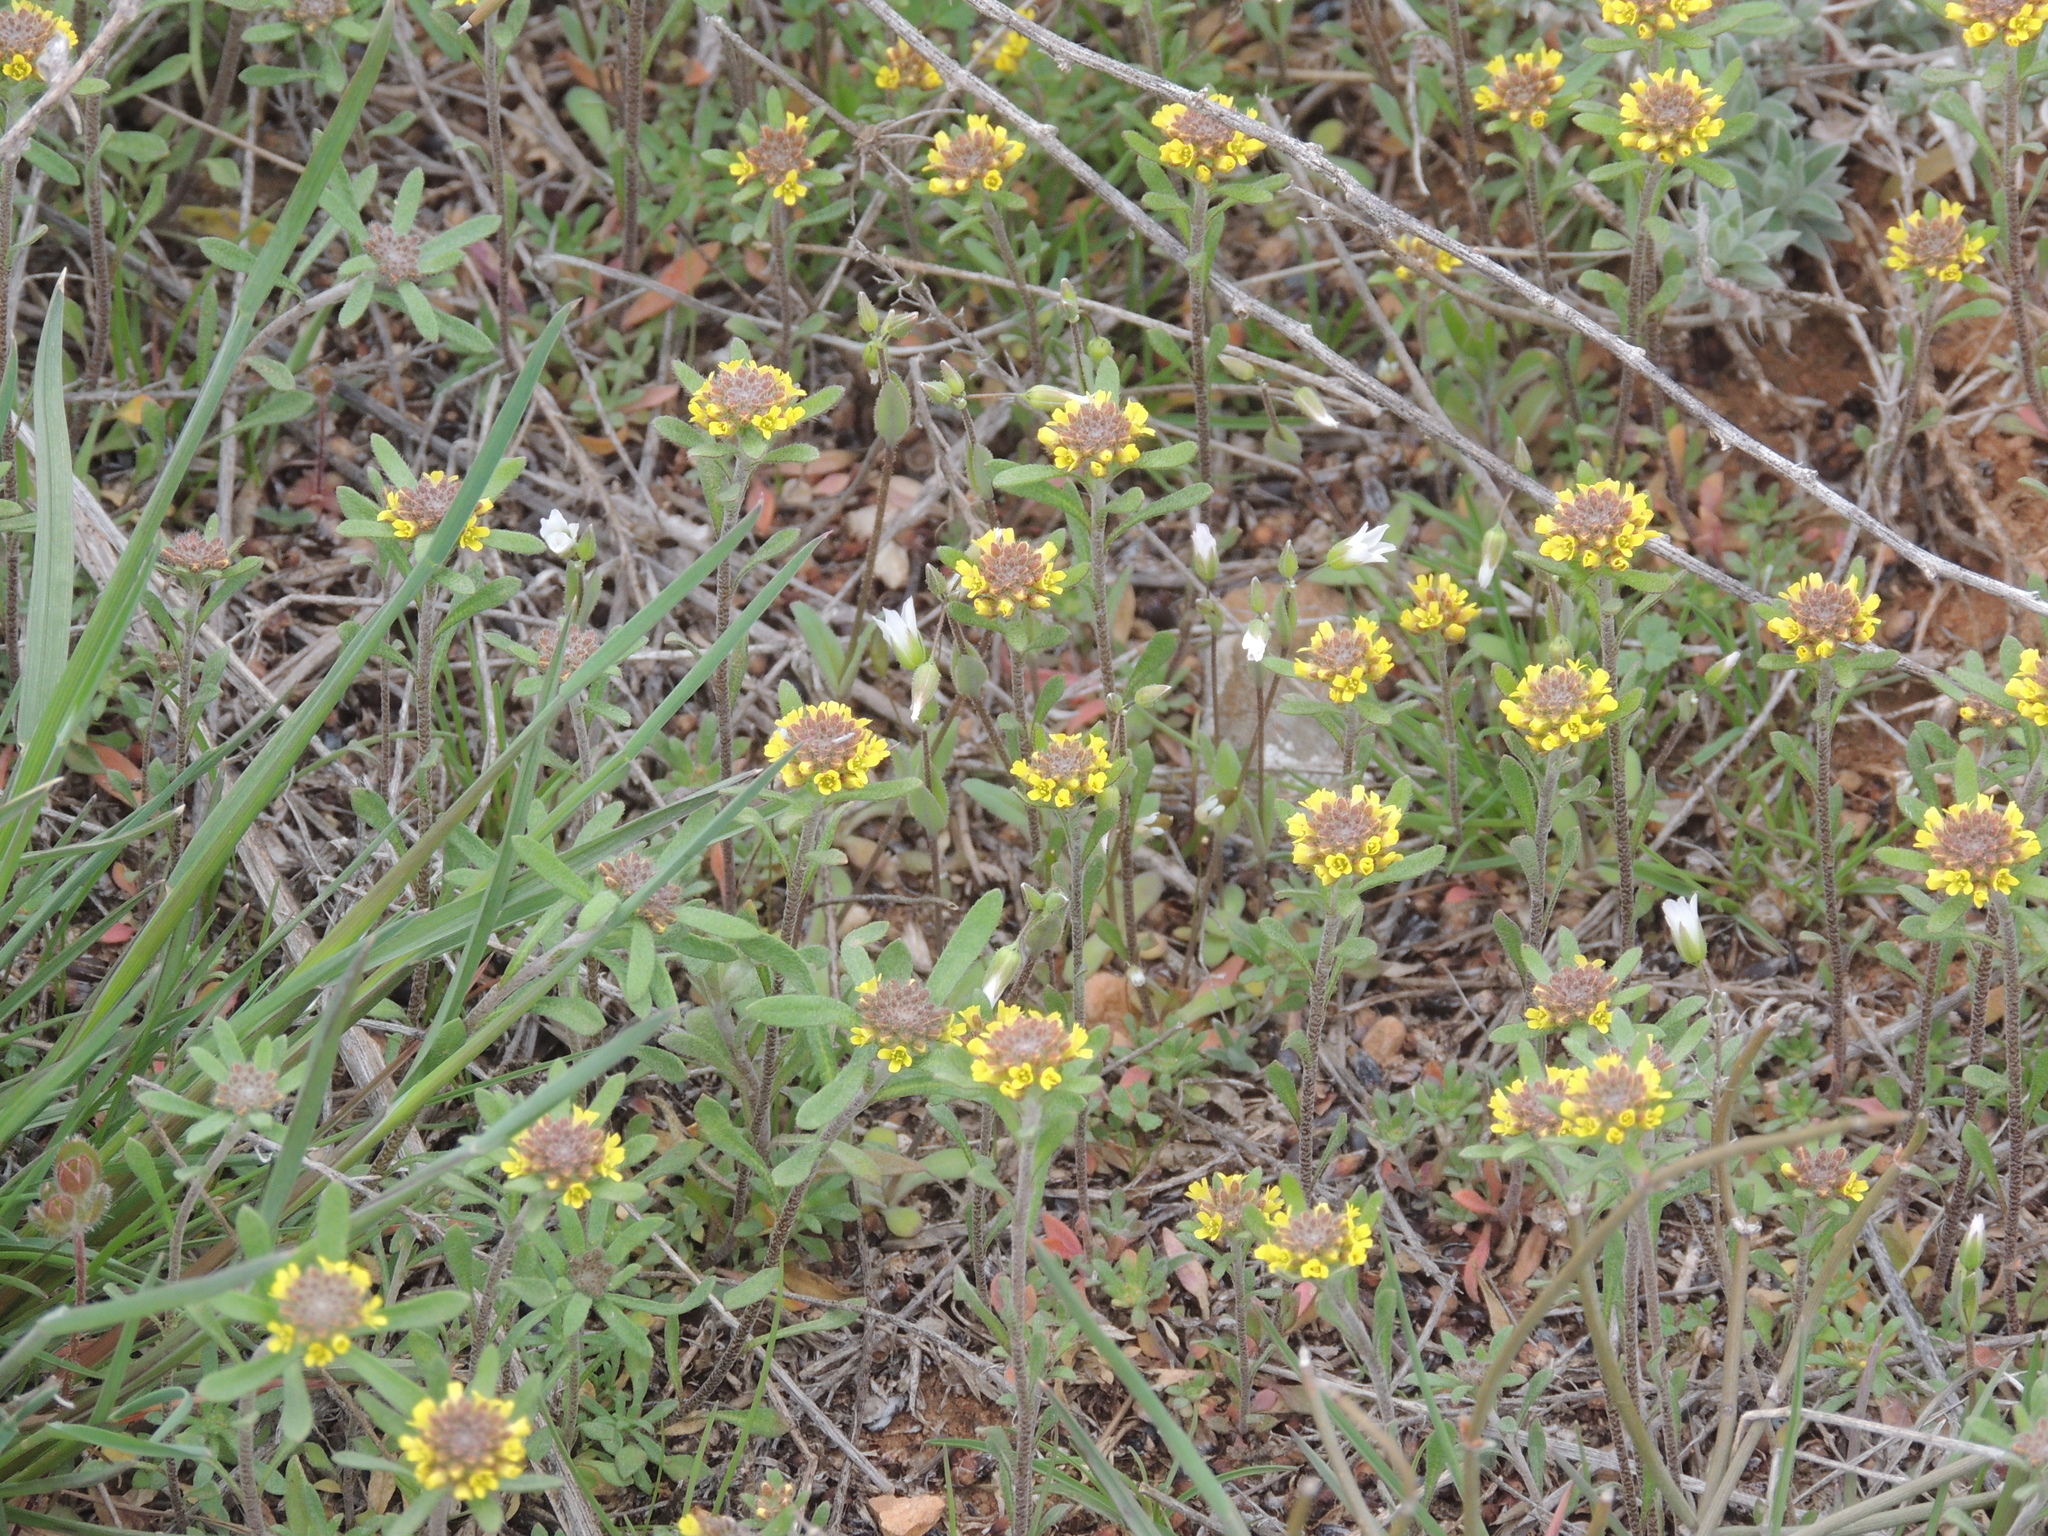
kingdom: Plantae
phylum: Tracheophyta
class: Magnoliopsida
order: Brassicales
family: Brassicaceae
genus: Alyssum
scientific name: Alyssum turkestanicum
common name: Desert alyssum
